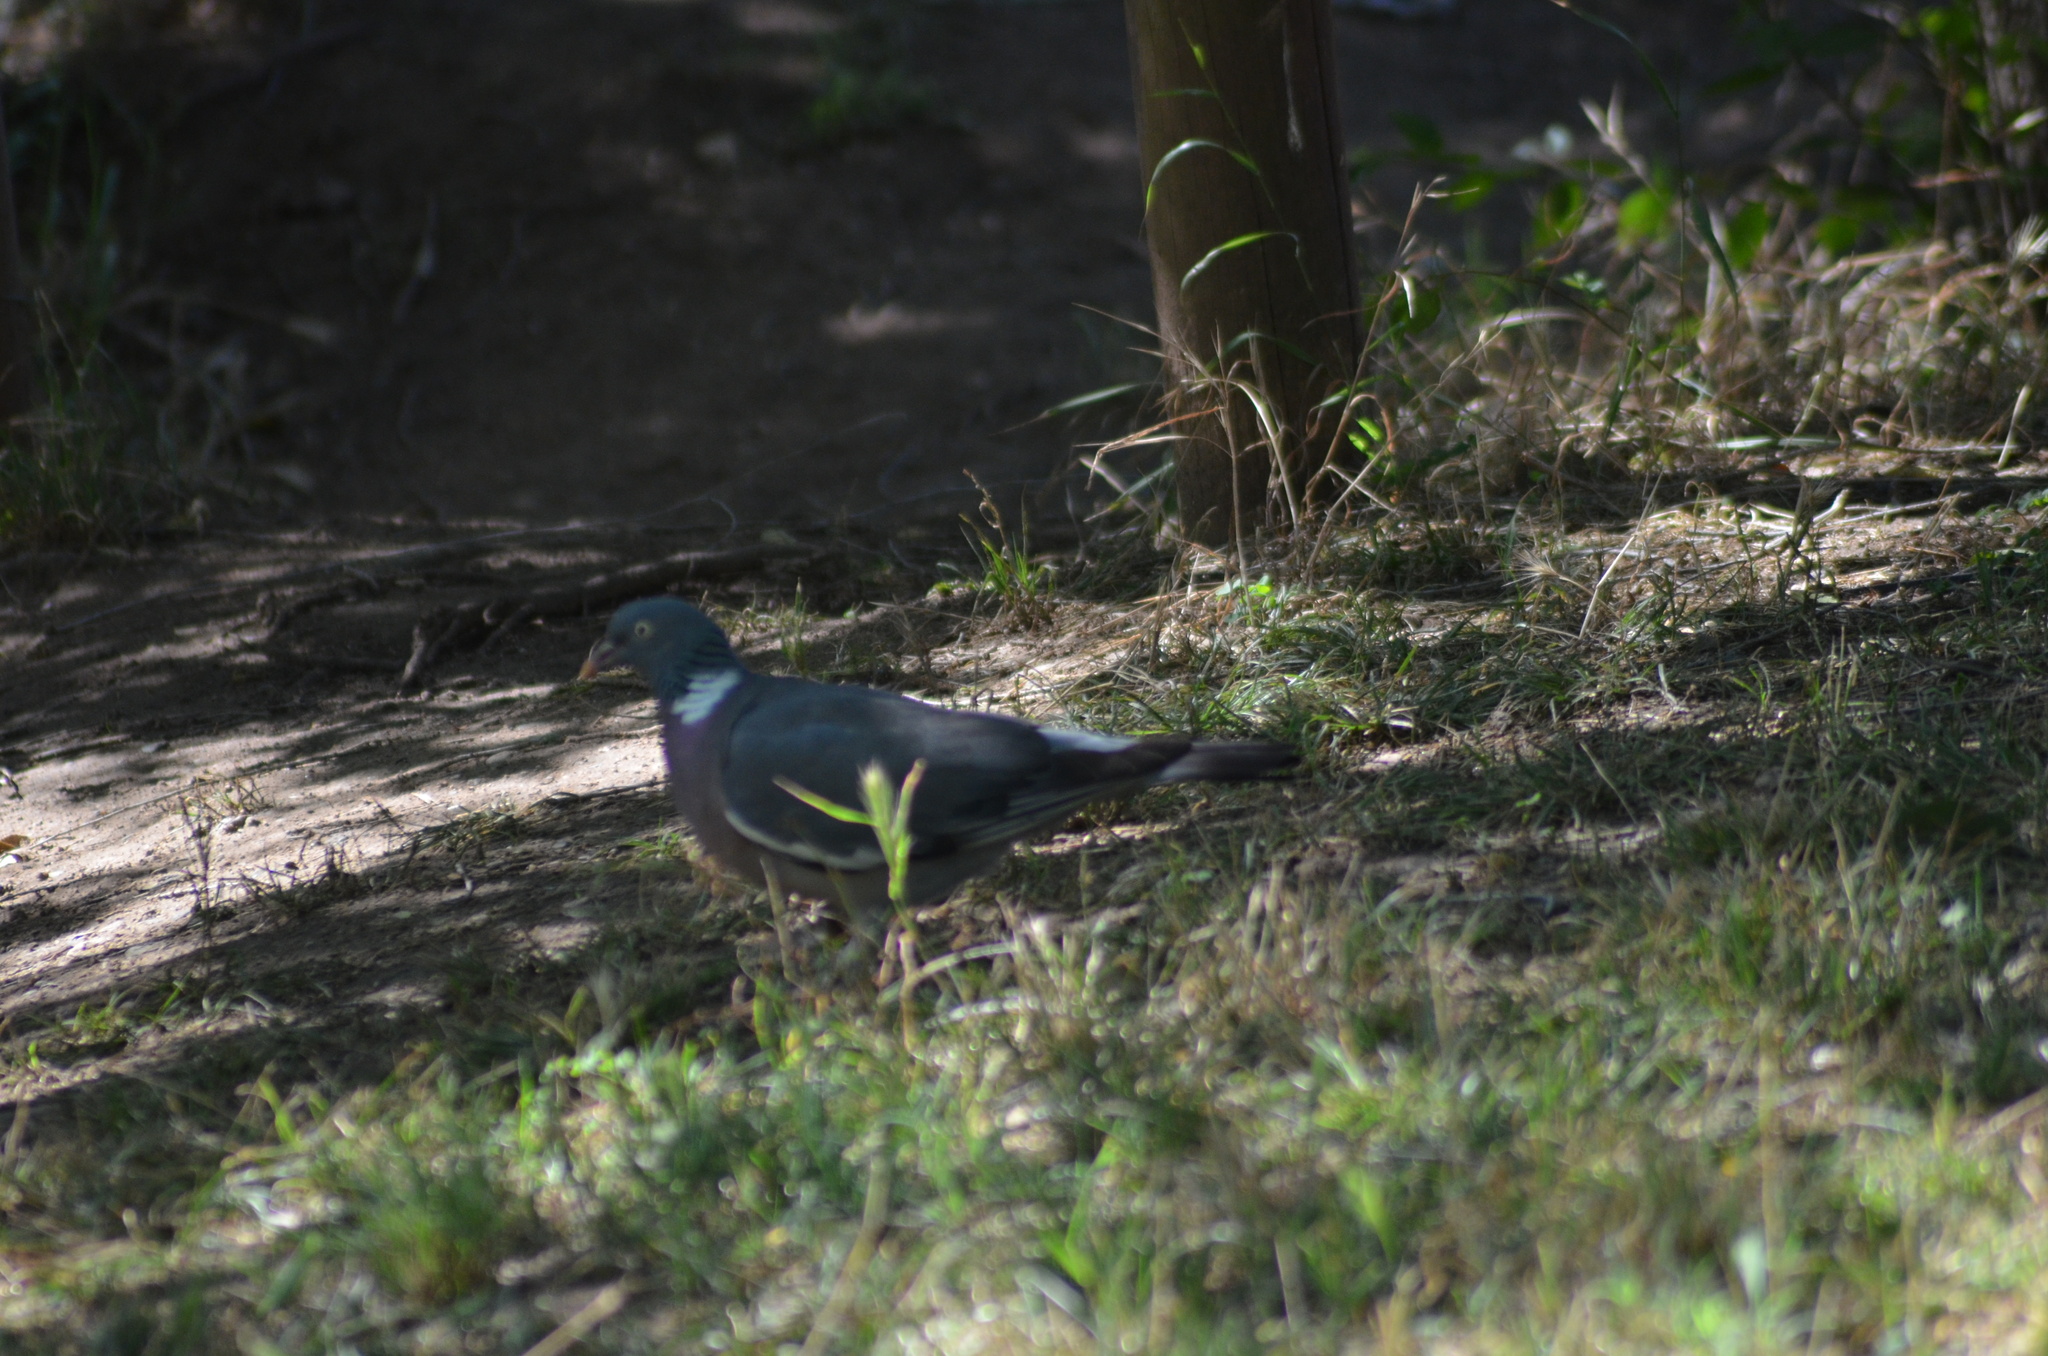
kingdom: Animalia
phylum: Chordata
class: Aves
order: Columbiformes
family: Columbidae
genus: Columba
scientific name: Columba palumbus
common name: Common wood pigeon
